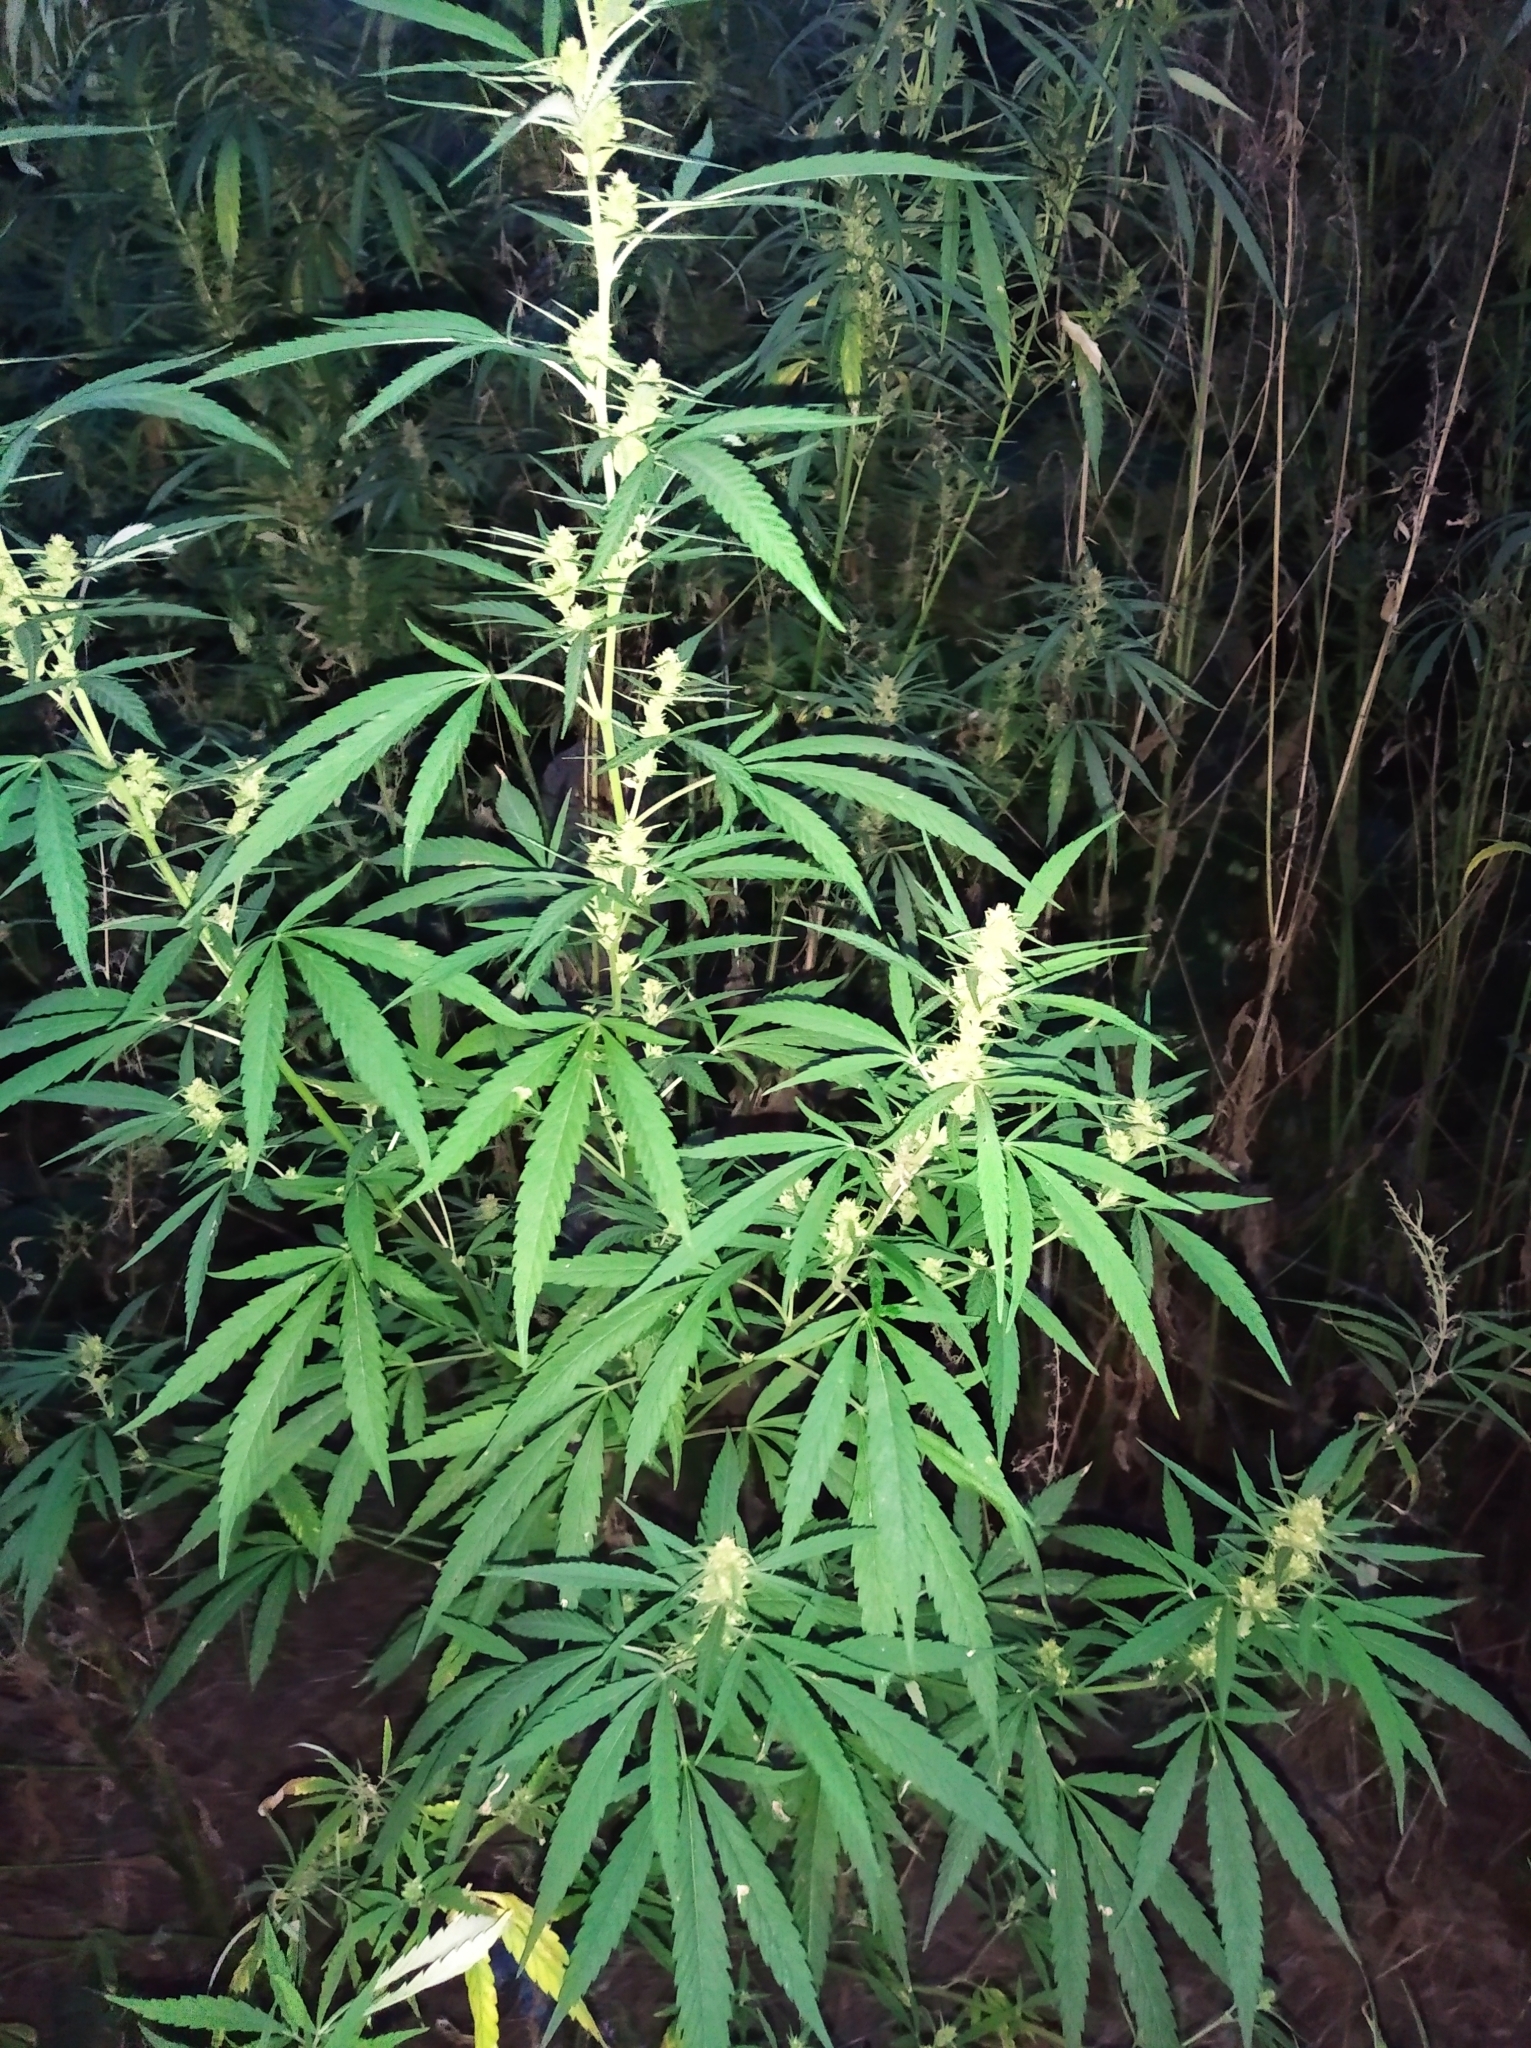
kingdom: Plantae
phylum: Tracheophyta
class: Magnoliopsida
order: Rosales
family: Cannabaceae
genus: Cannabis
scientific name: Cannabis sativa
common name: Hemp
